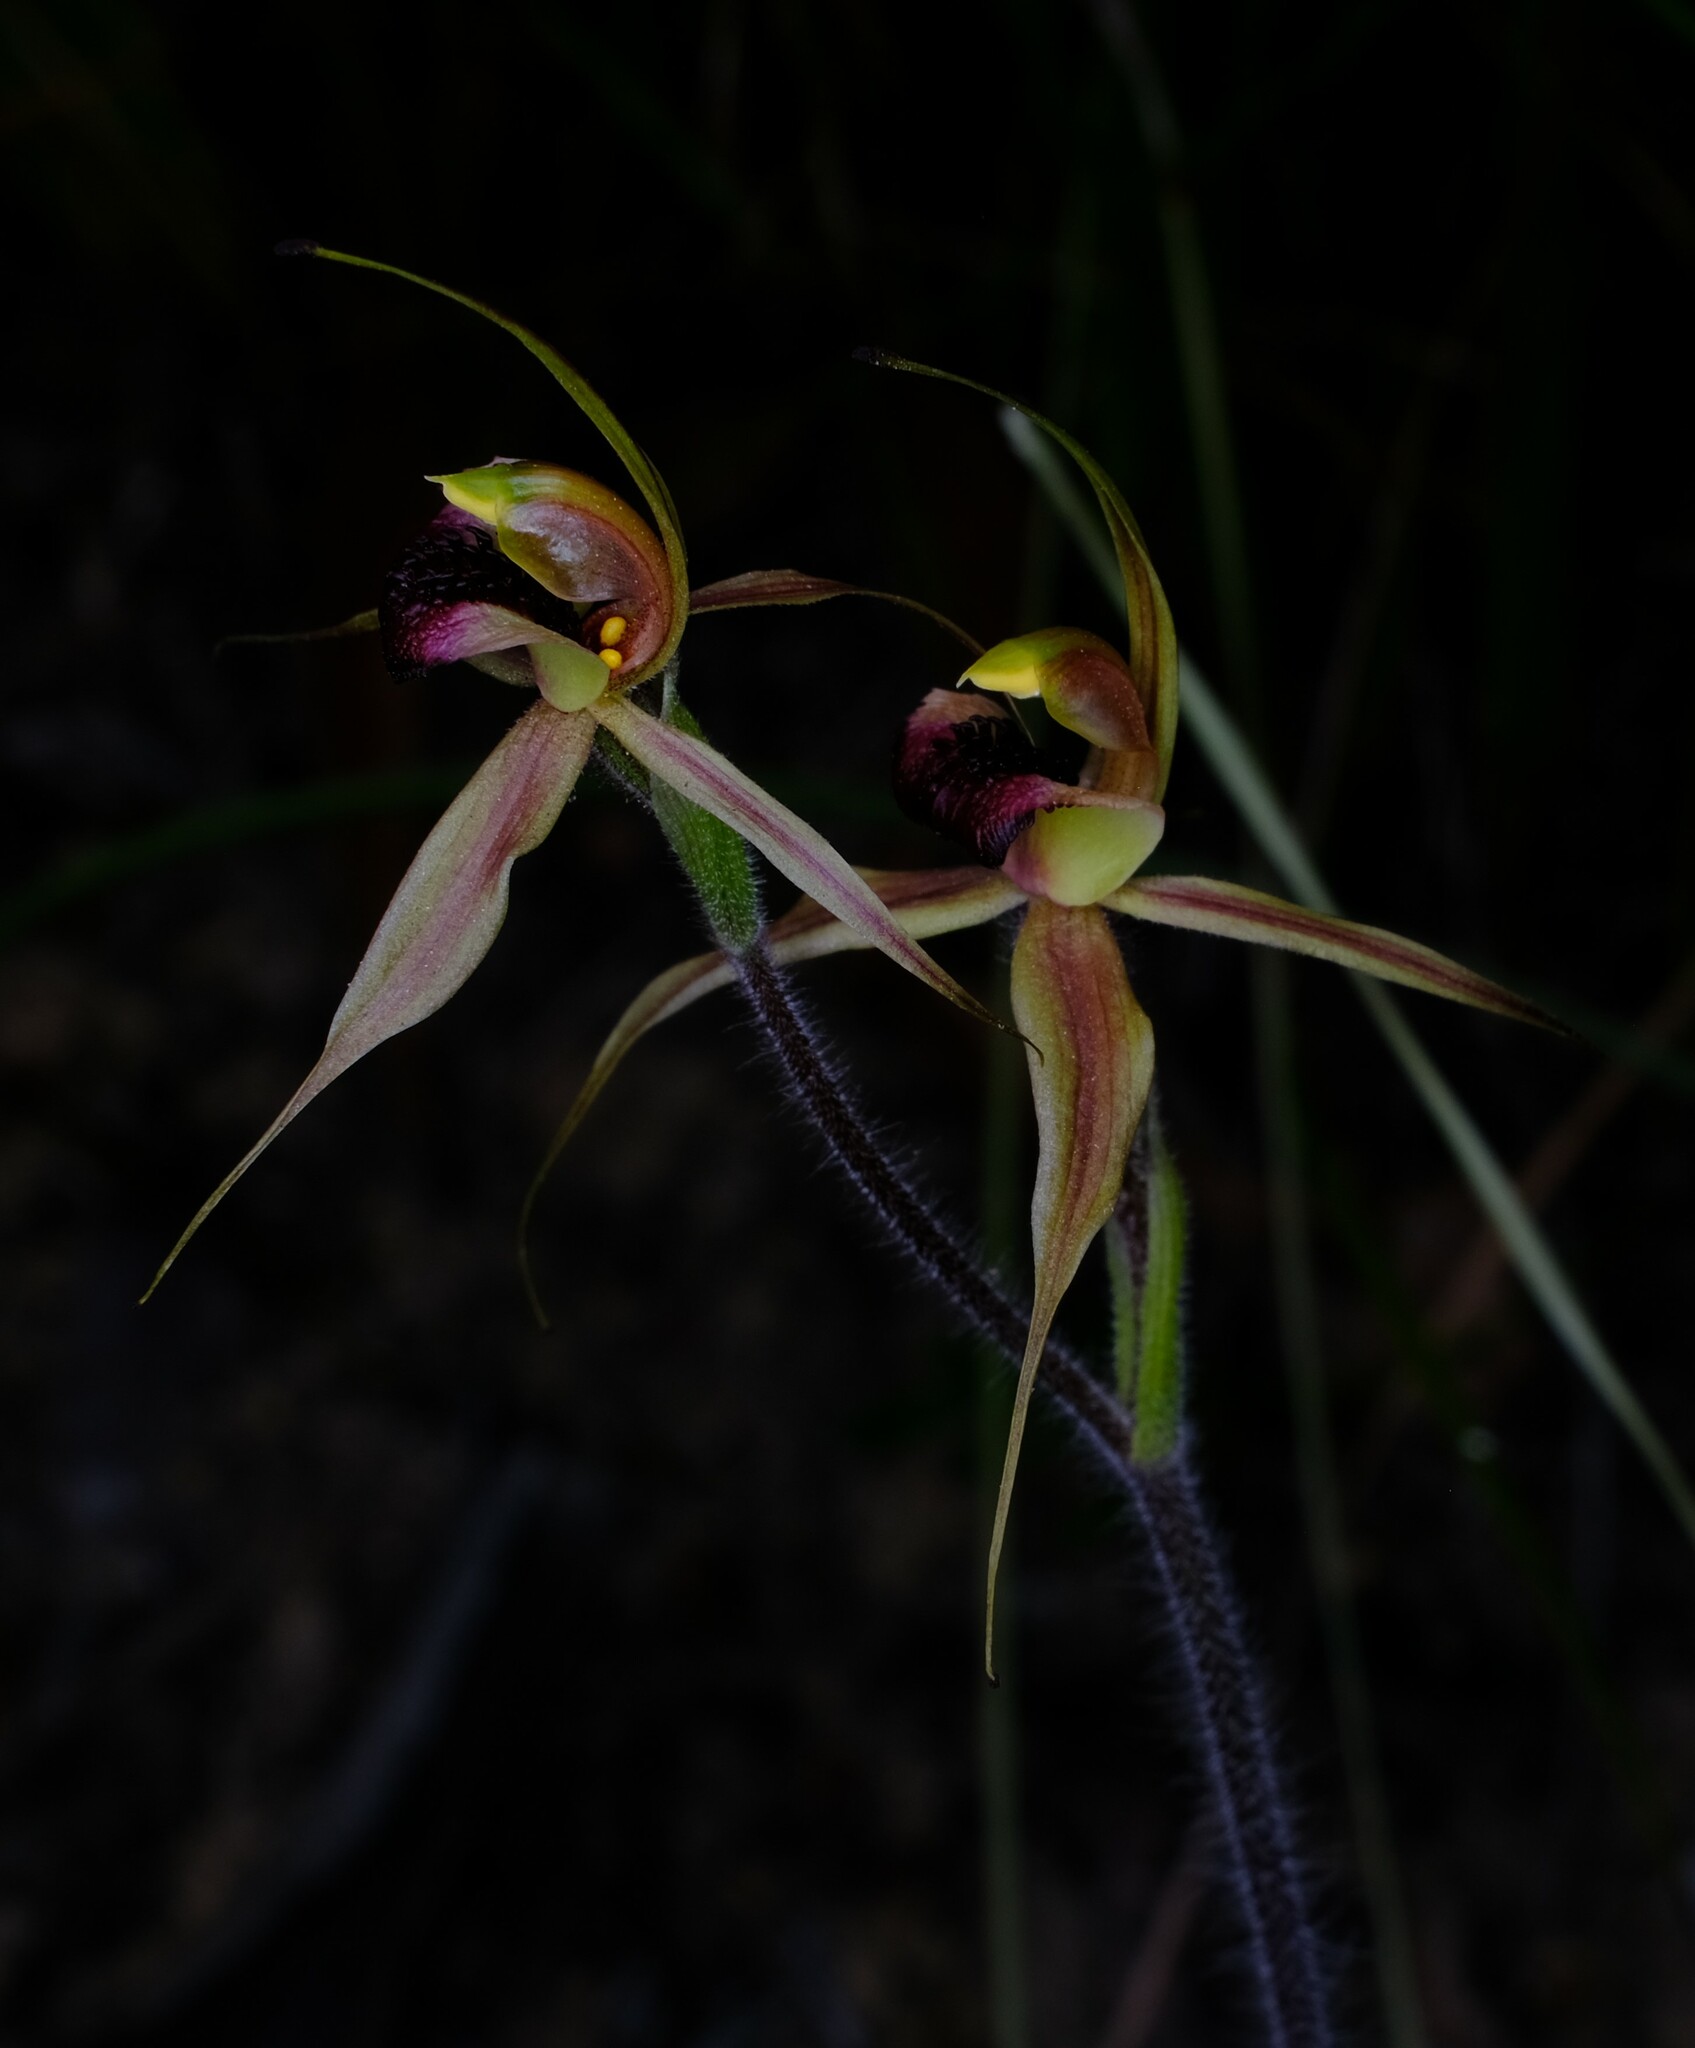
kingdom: Plantae
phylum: Tracheophyta
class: Liliopsida
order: Asparagales
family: Orchidaceae
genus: Caladenia
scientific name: Caladenia clavigera
